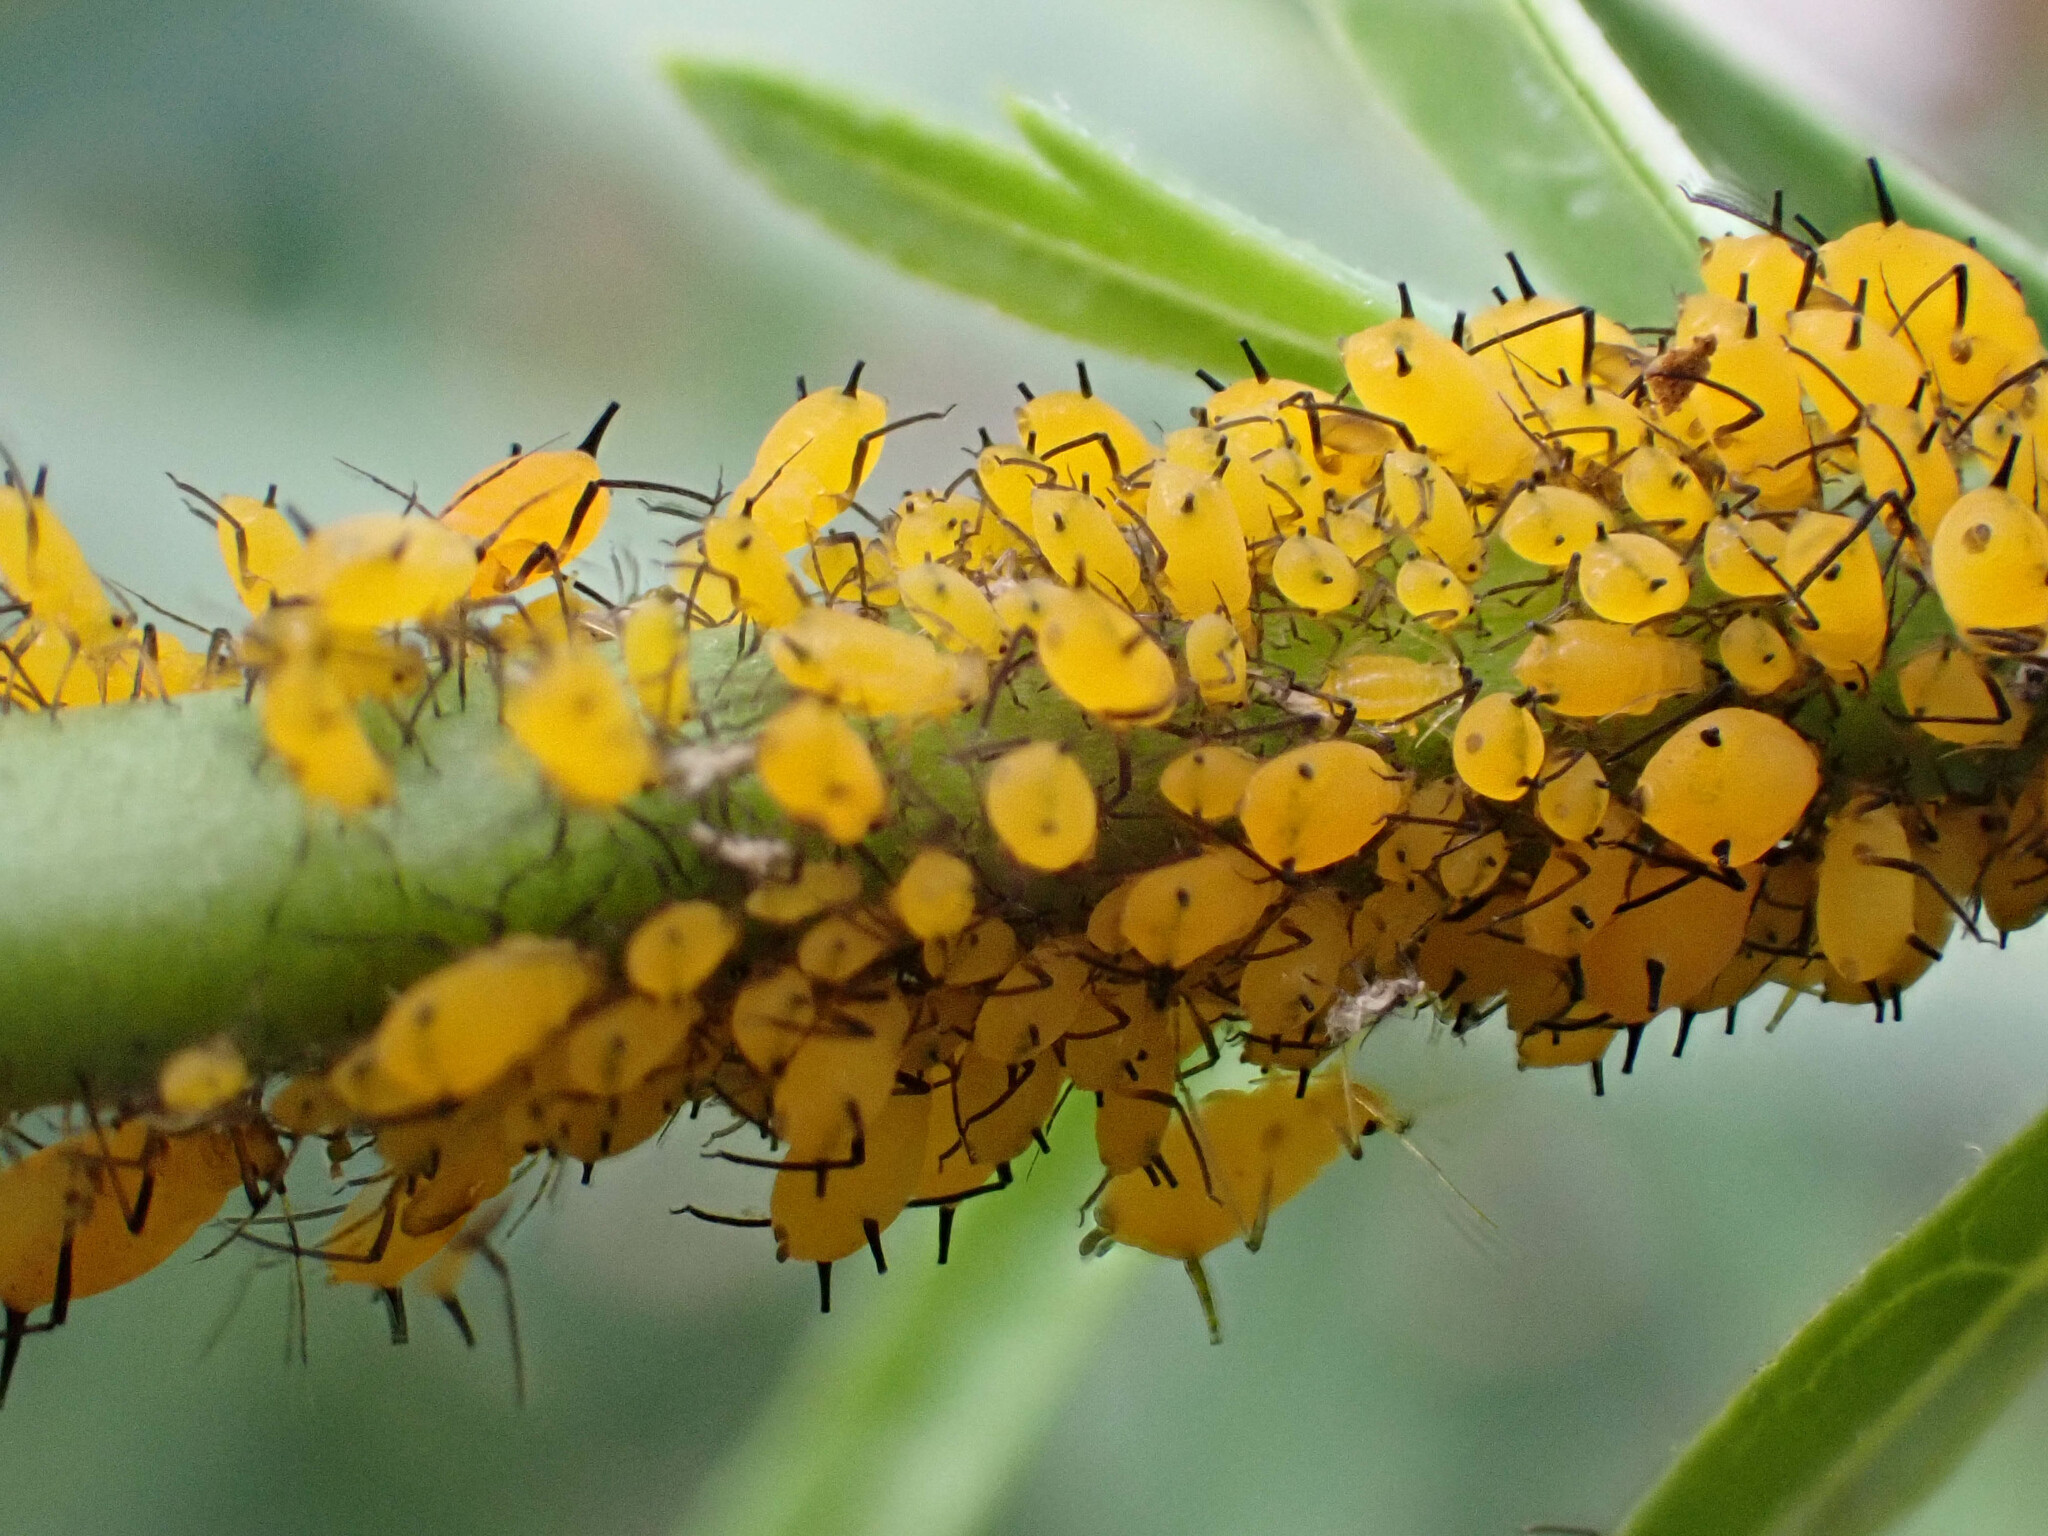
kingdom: Animalia
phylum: Arthropoda
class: Insecta
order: Hemiptera
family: Aphididae
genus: Aphis
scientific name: Aphis nerii
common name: Oleander aphid
